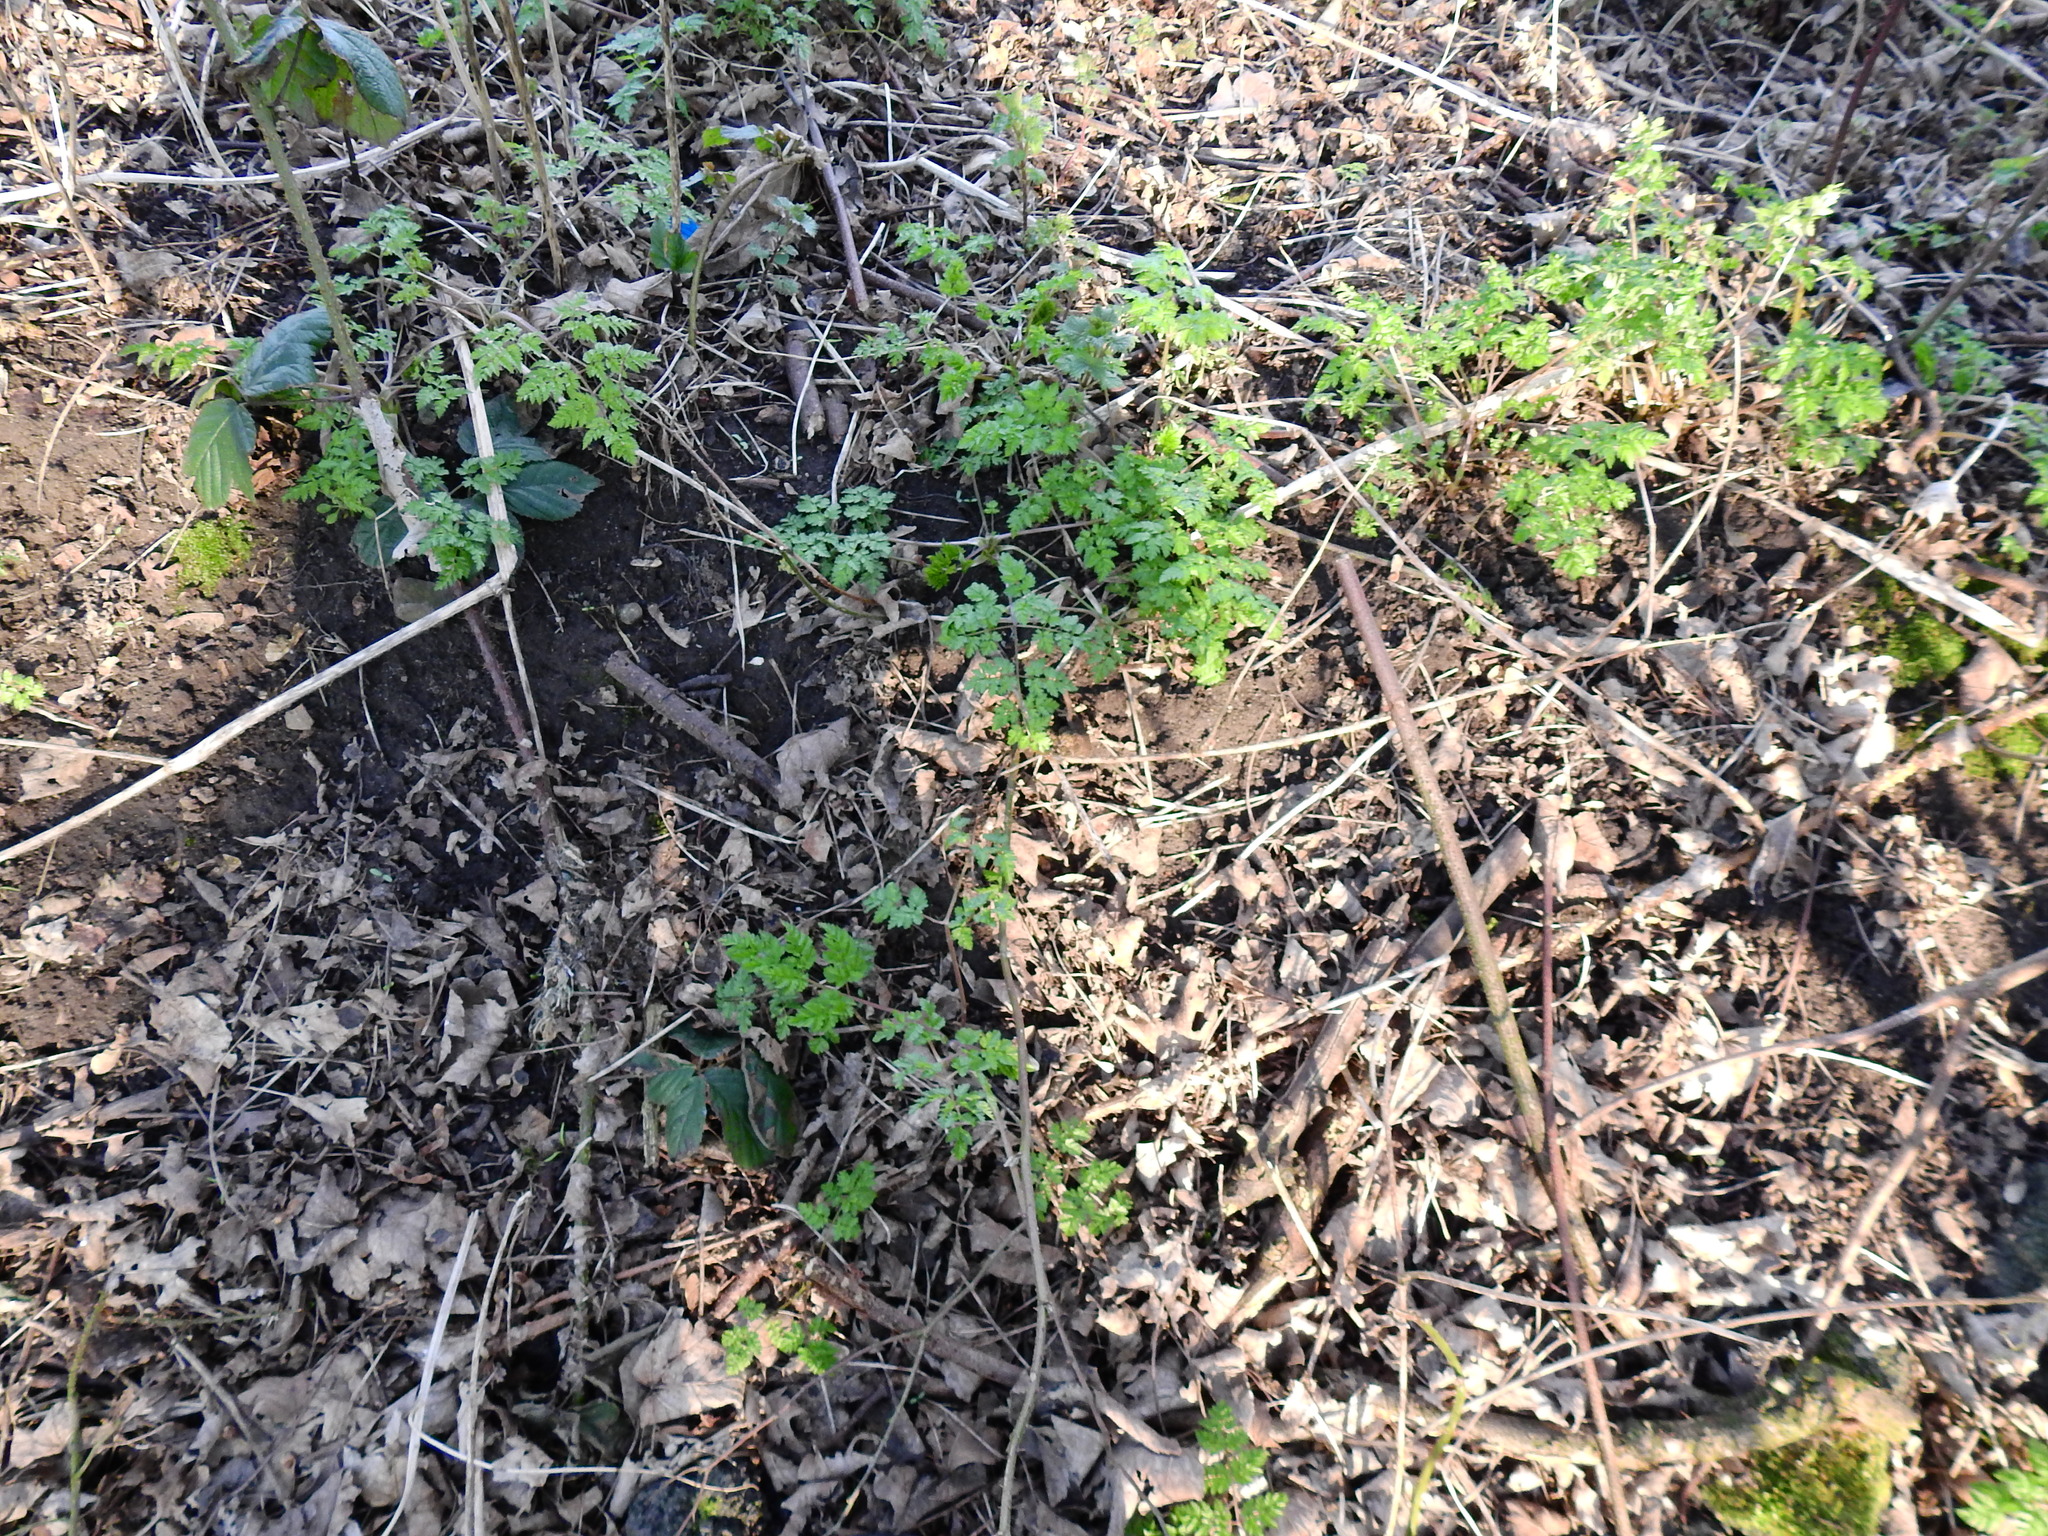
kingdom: Plantae
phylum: Tracheophyta
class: Magnoliopsida
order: Apiales
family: Apiaceae
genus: Anthriscus
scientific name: Anthriscus sylvestris
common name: Cow parsley
